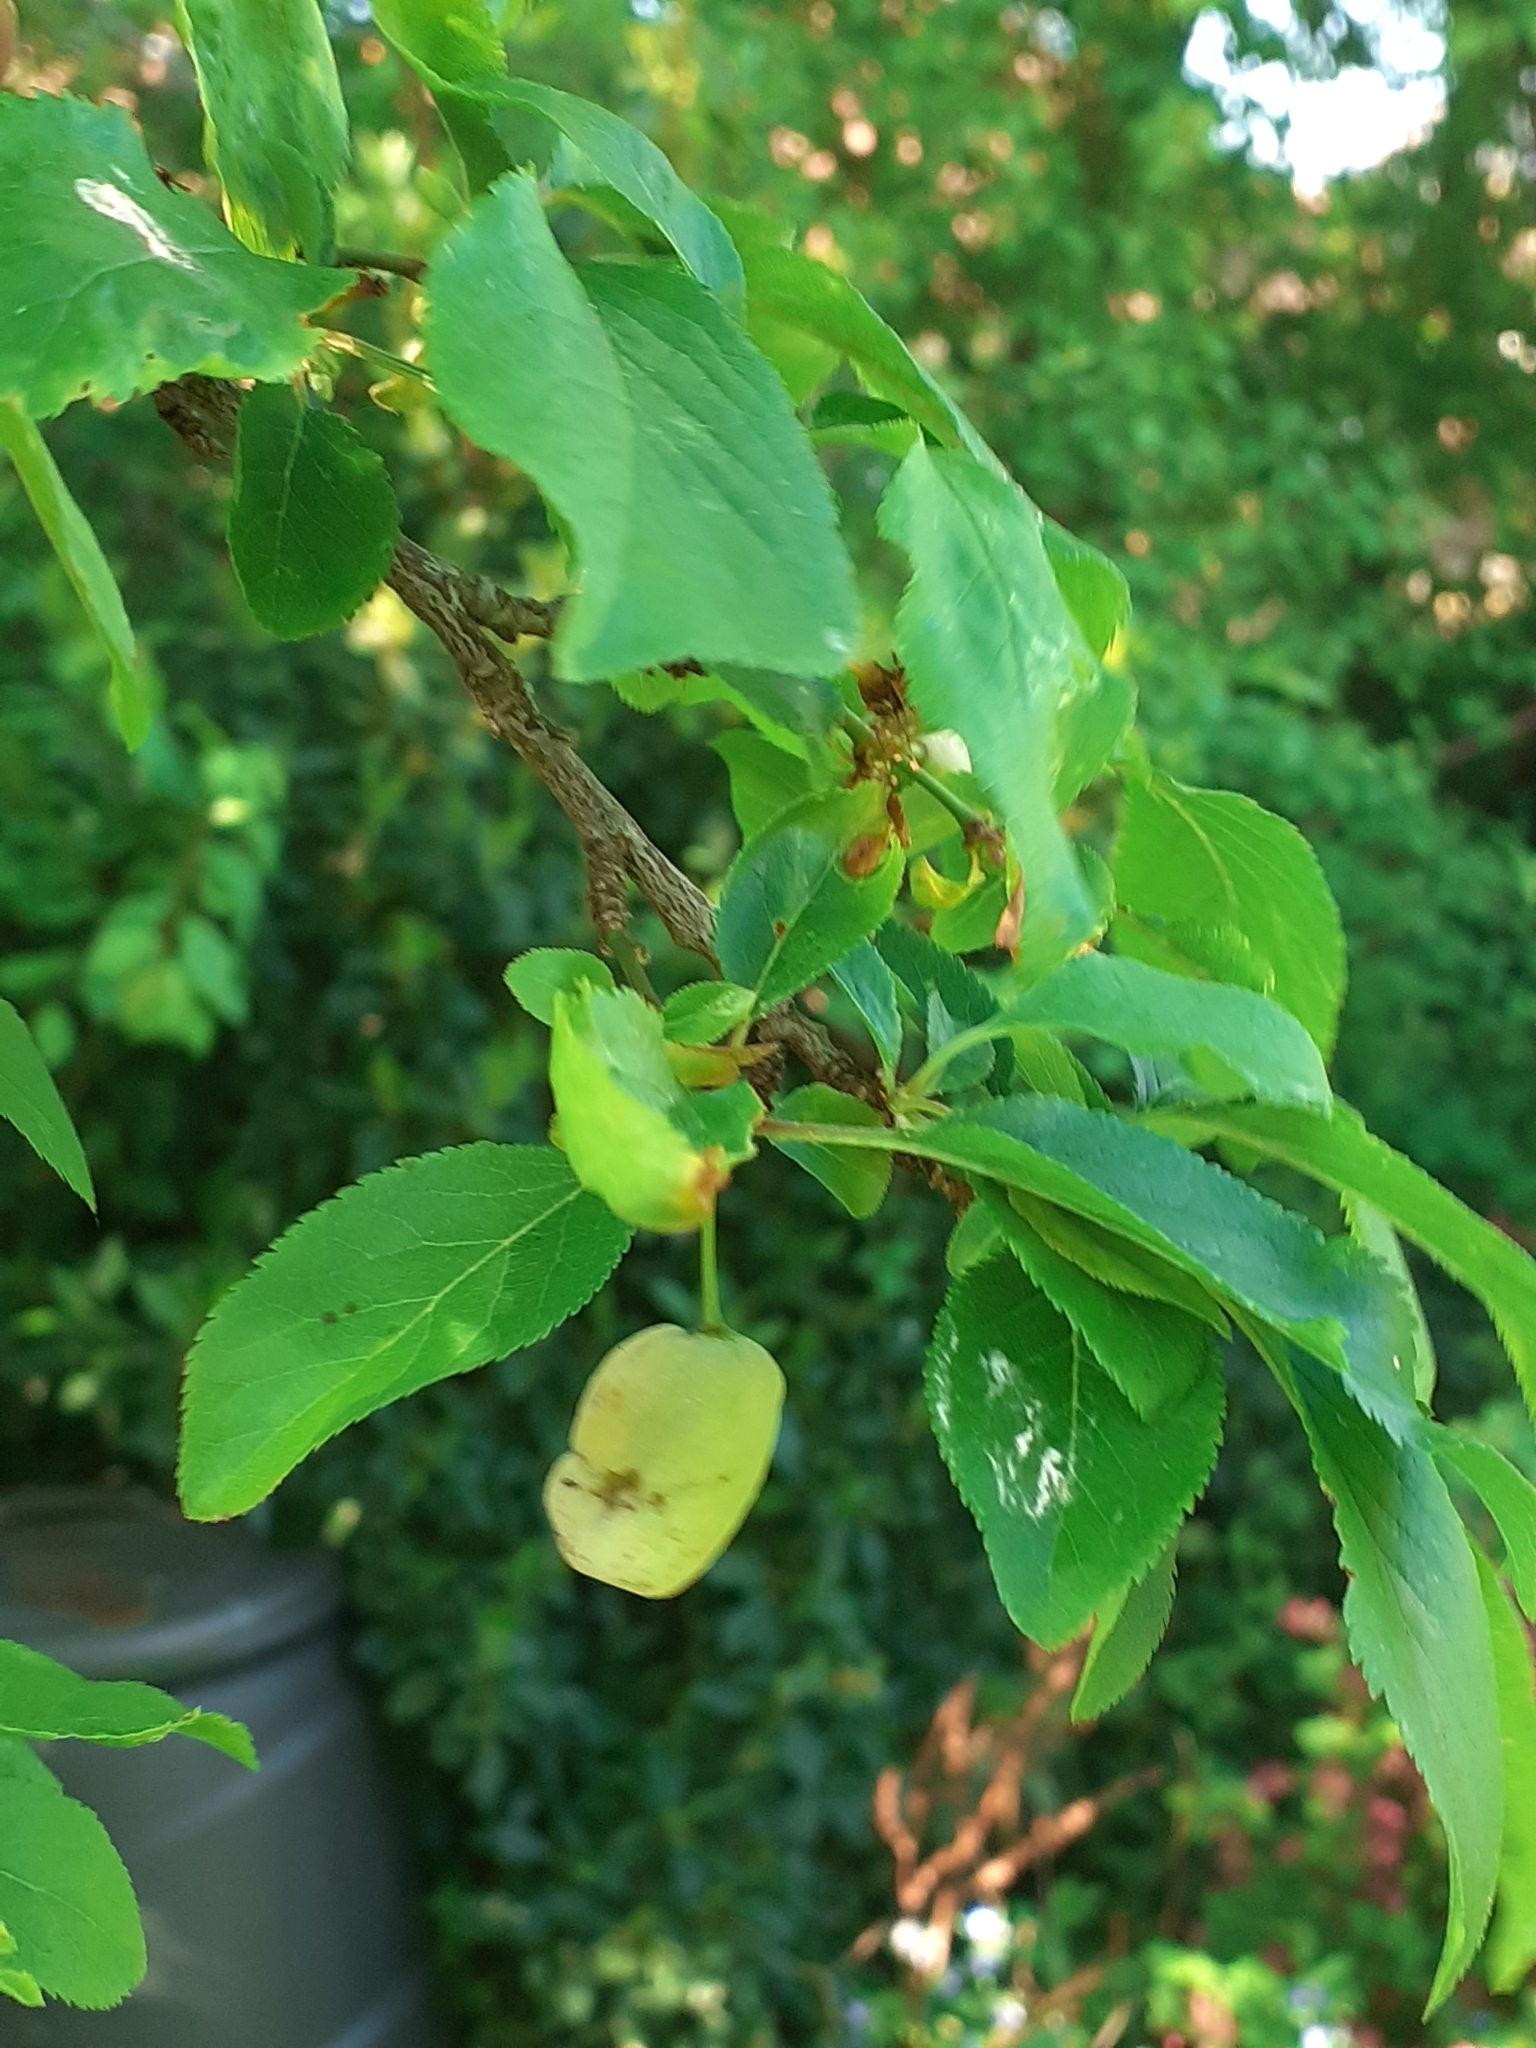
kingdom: Fungi
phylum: Ascomycota
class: Taphrinomycetes
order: Taphrinales
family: Taphrinaceae
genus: Taphrina
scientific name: Taphrina pruni
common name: Pocket plum
